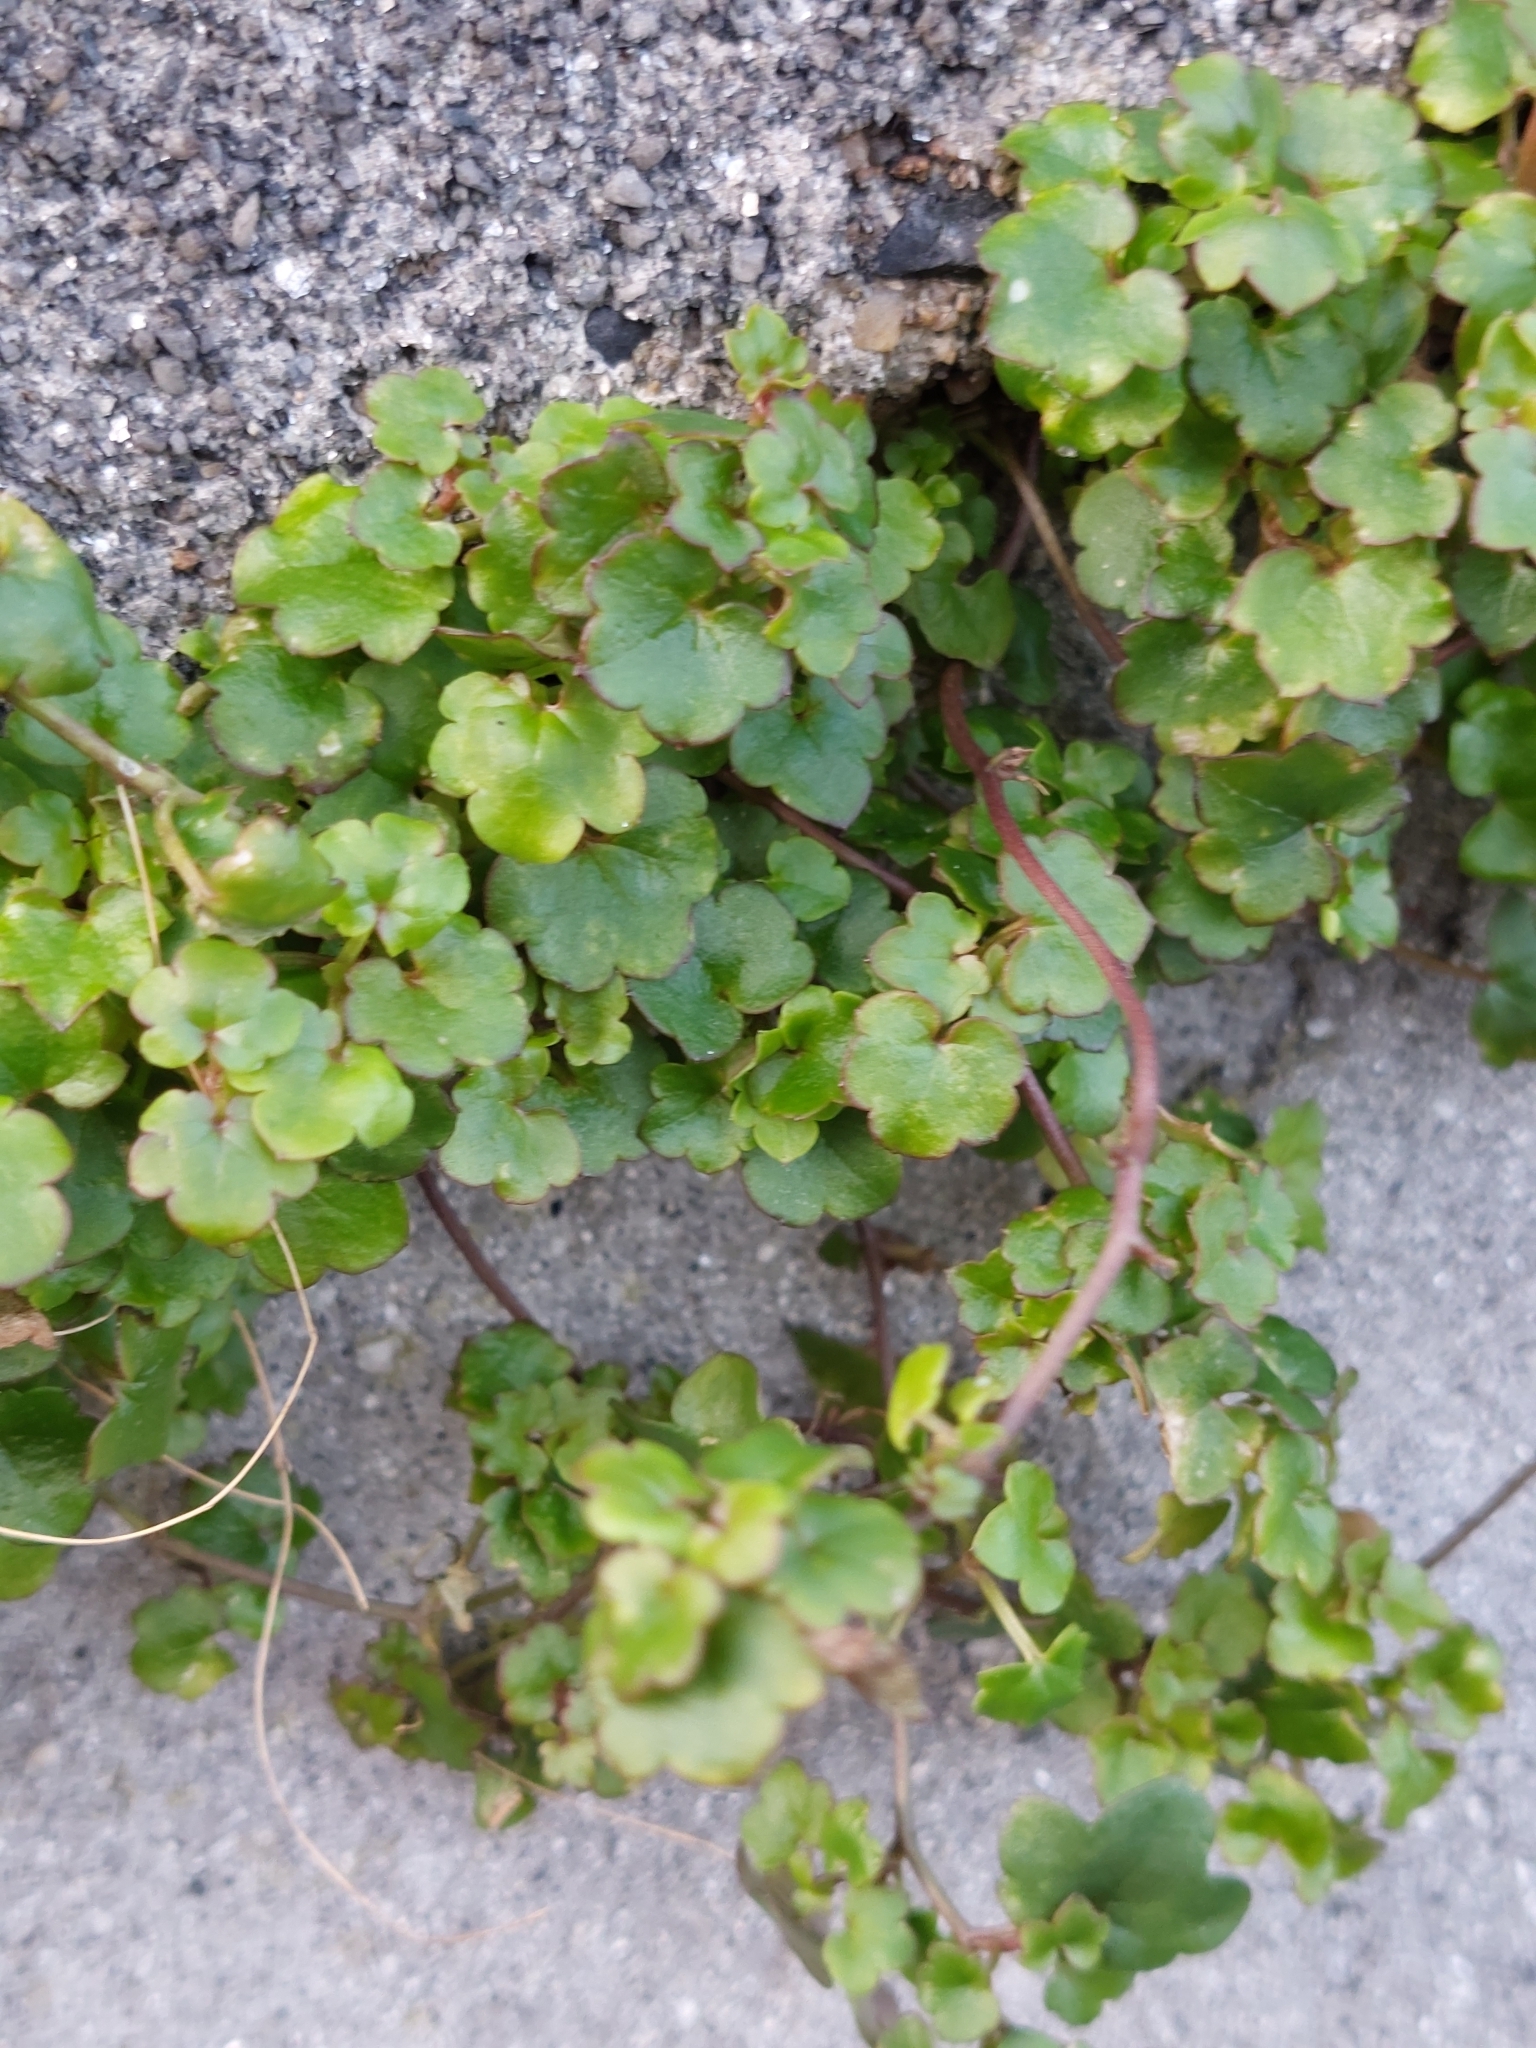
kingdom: Plantae
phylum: Tracheophyta
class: Magnoliopsida
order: Lamiales
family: Plantaginaceae
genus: Cymbalaria
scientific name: Cymbalaria muralis
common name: Ivy-leaved toadflax
